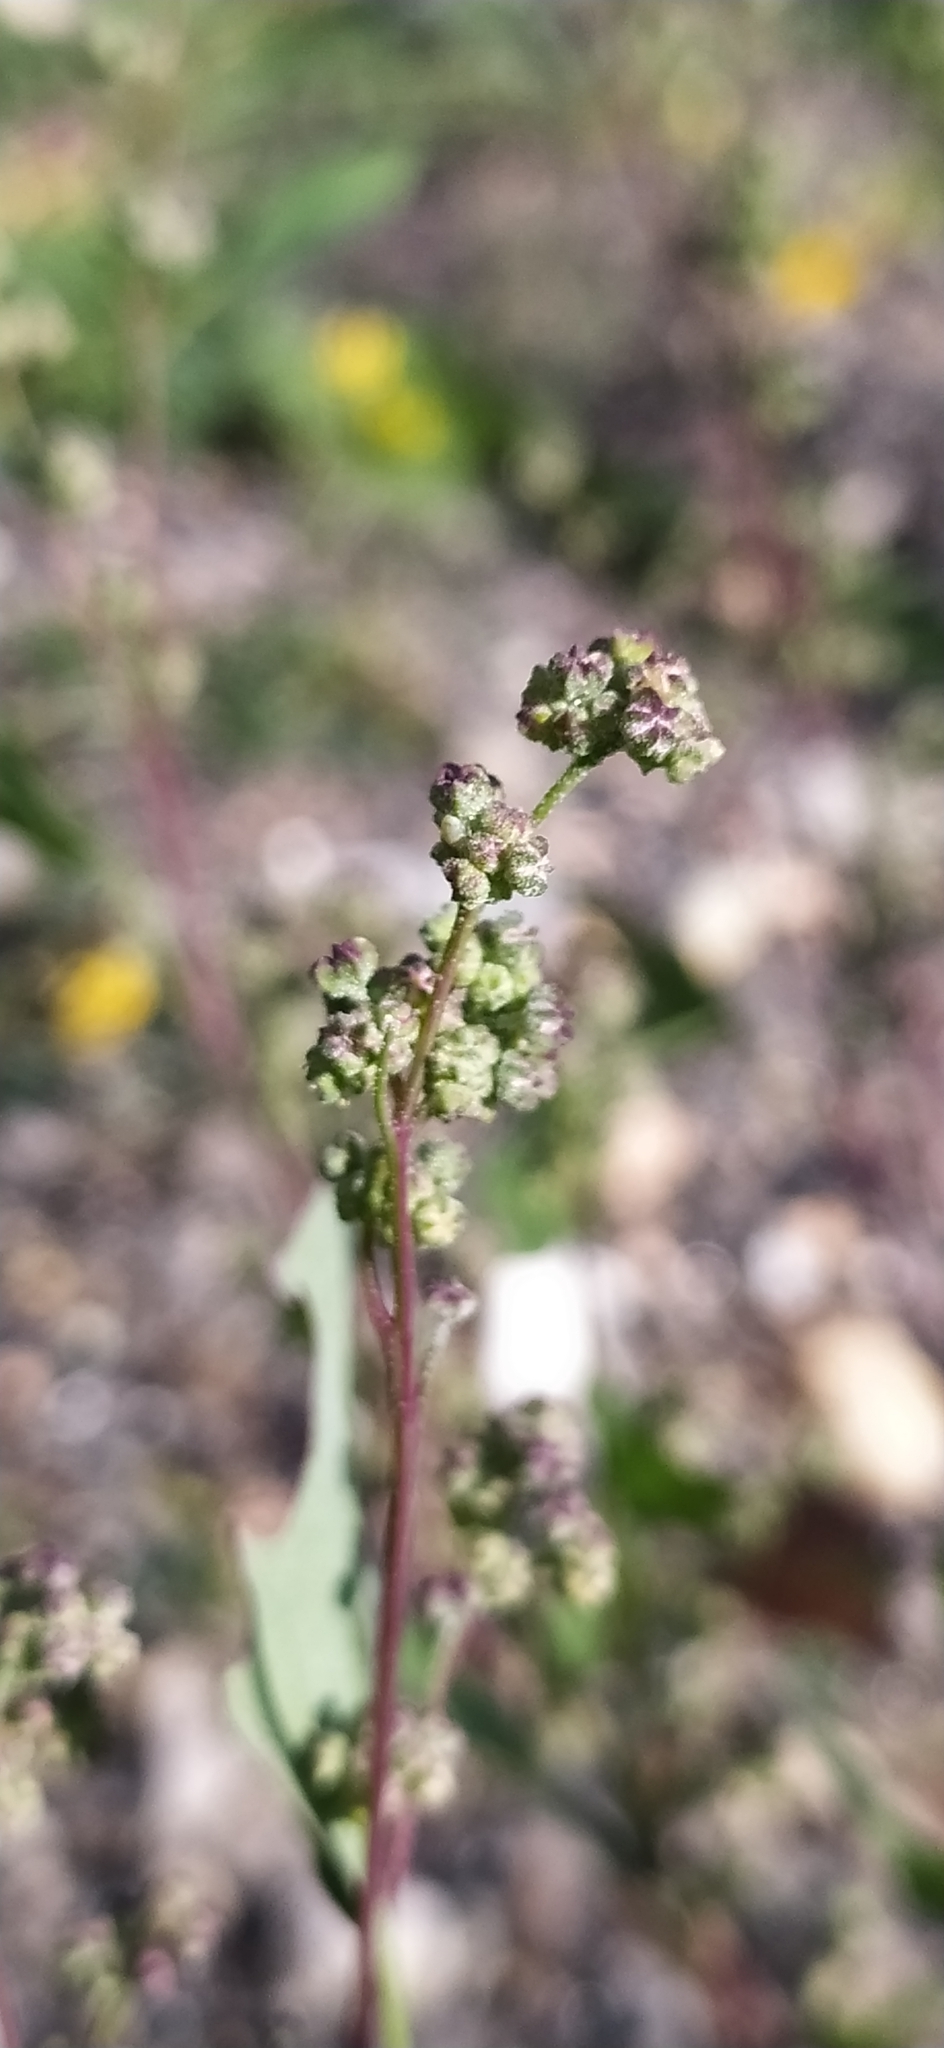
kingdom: Plantae
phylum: Tracheophyta
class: Magnoliopsida
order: Caryophyllales
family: Amaranthaceae
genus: Chenopodium
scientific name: Chenopodium betaceum
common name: Striped goosefoot
